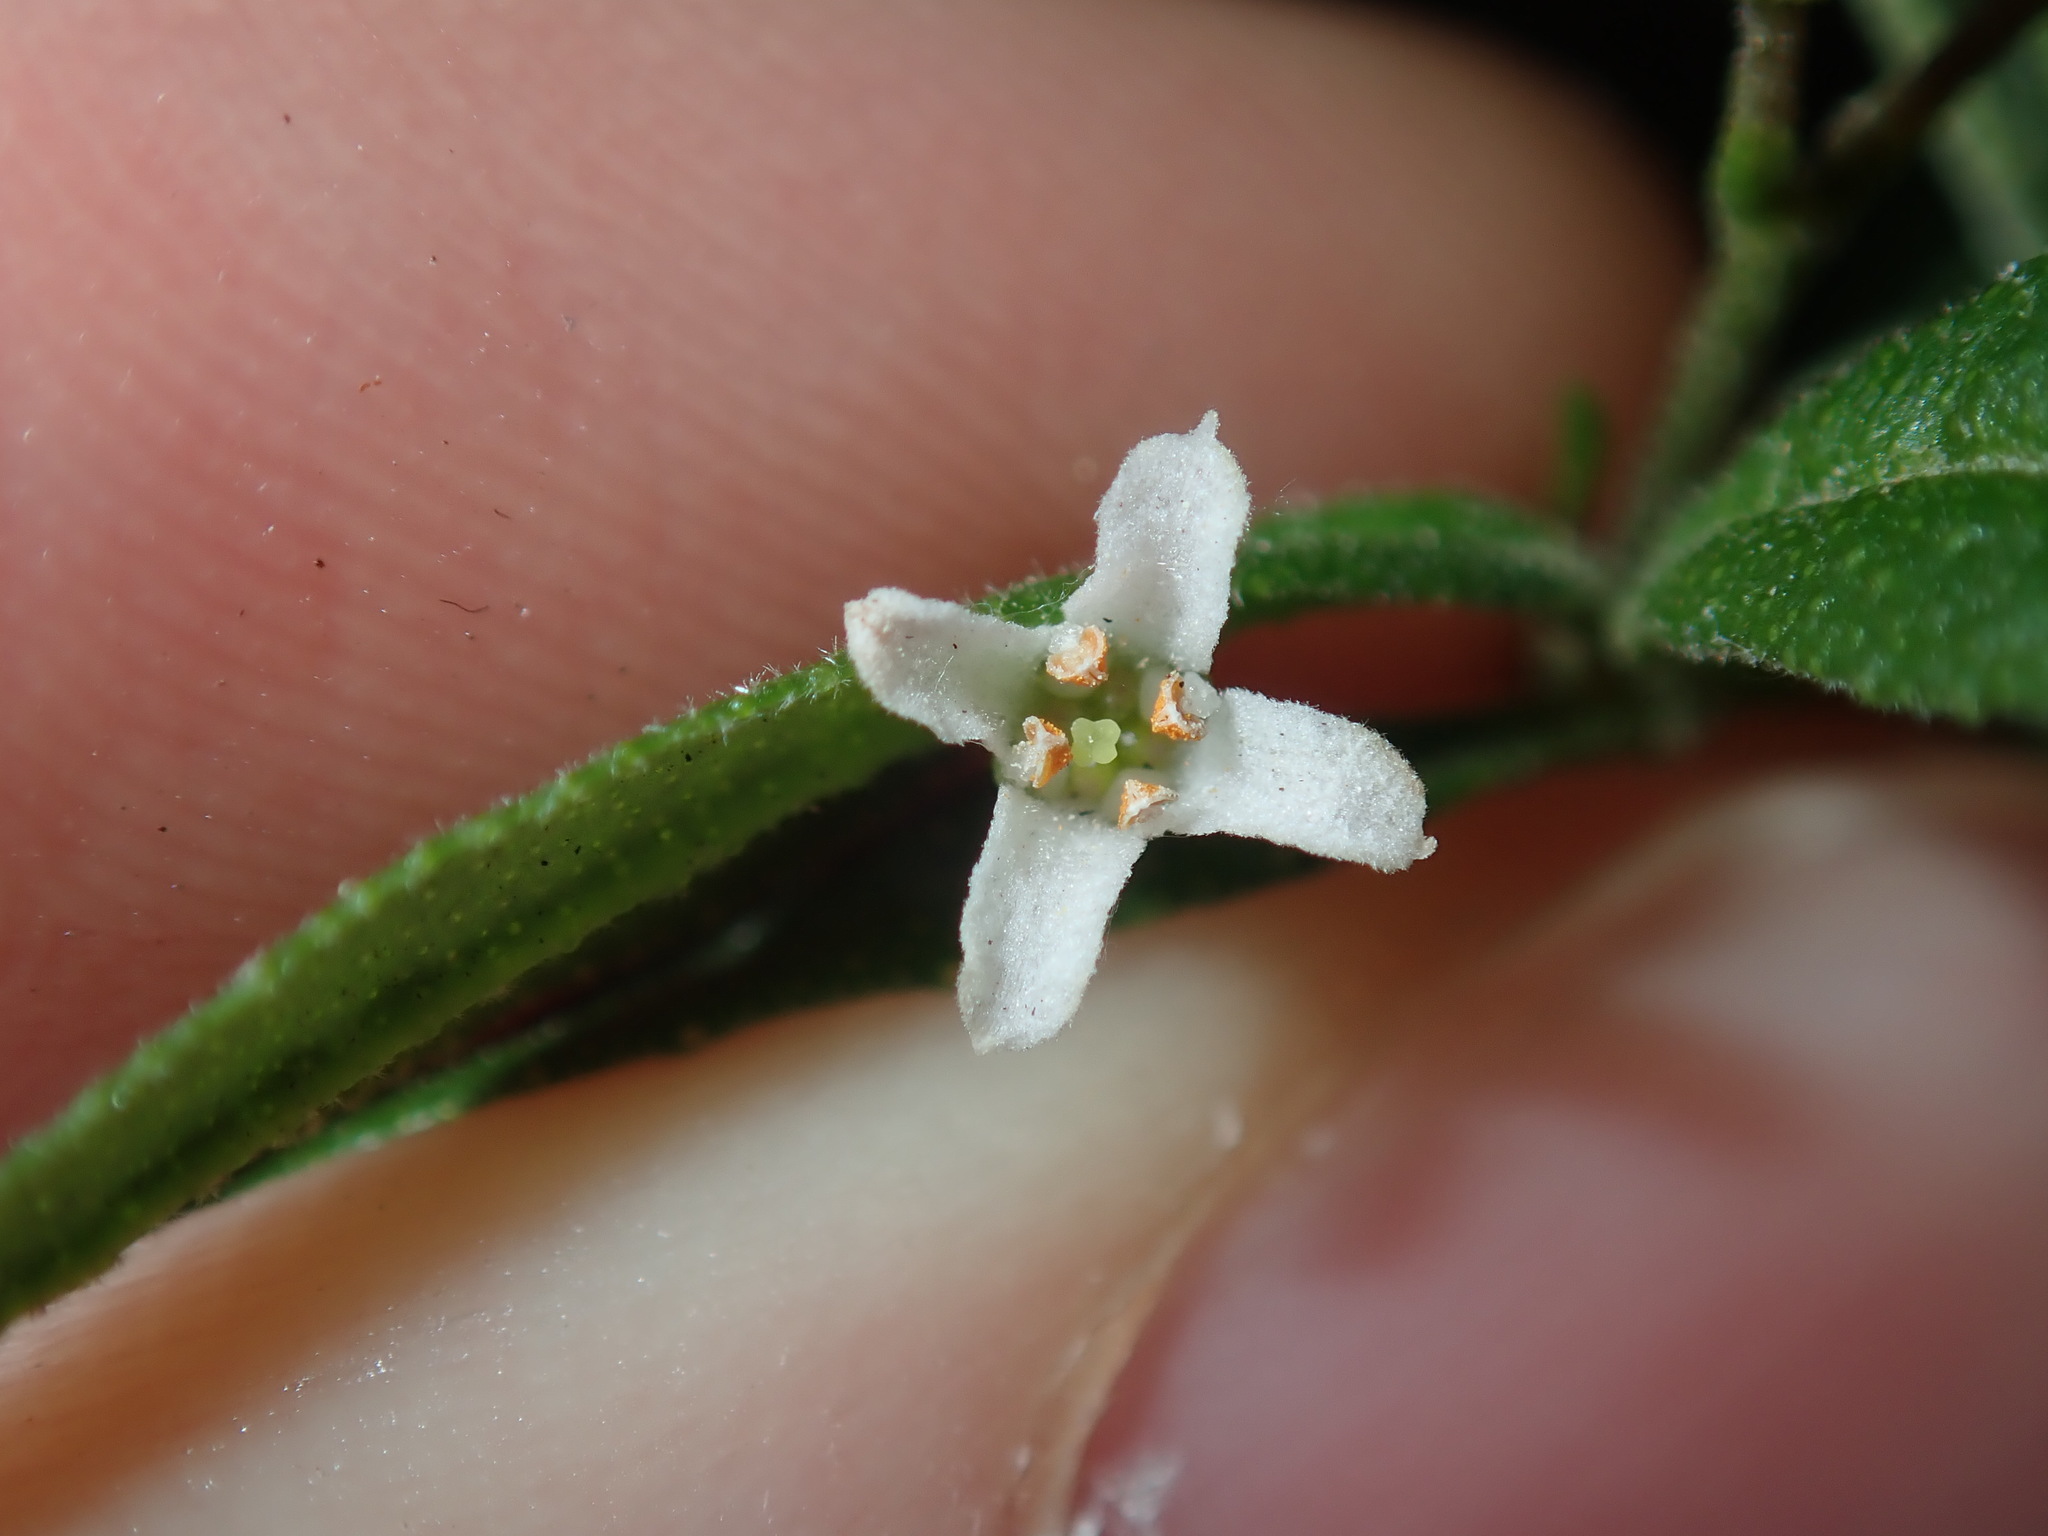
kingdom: Plantae
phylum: Tracheophyta
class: Magnoliopsida
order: Sapindales
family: Rutaceae
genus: Zieria
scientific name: Zieria smithii
